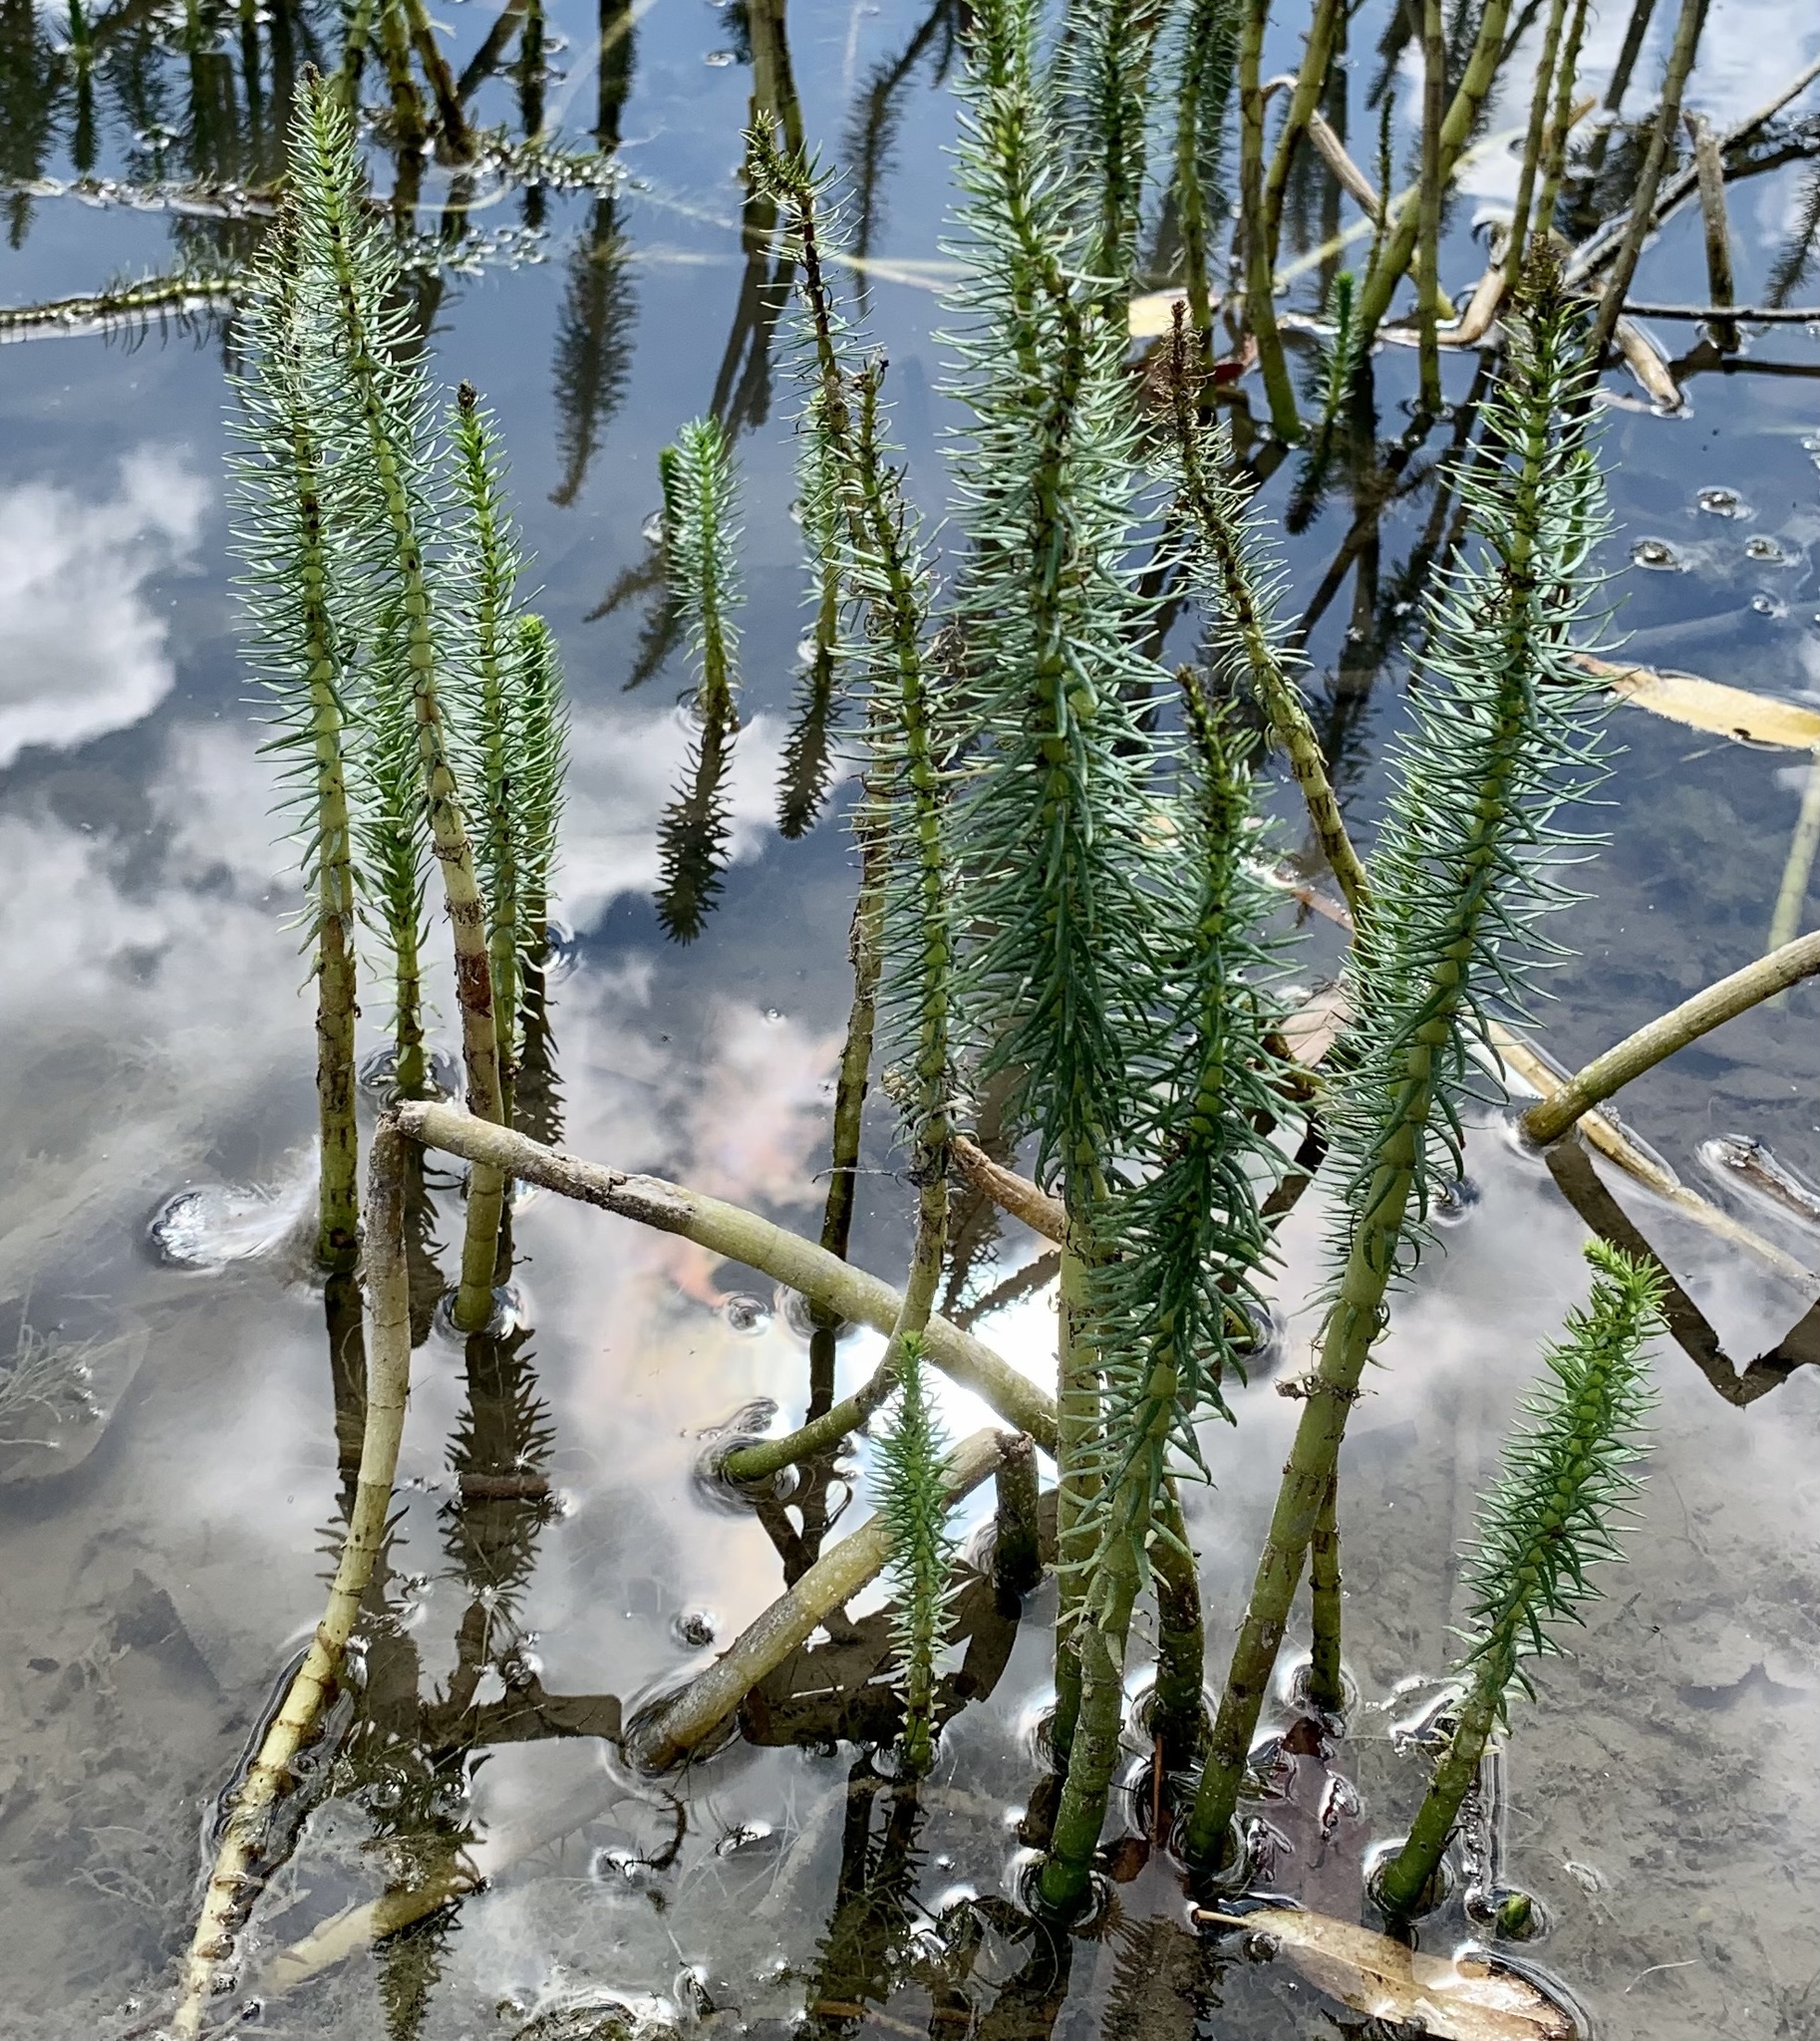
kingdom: Plantae
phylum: Tracheophyta
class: Magnoliopsida
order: Lamiales
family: Plantaginaceae
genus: Hippuris
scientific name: Hippuris vulgaris
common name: Mare's-tail
